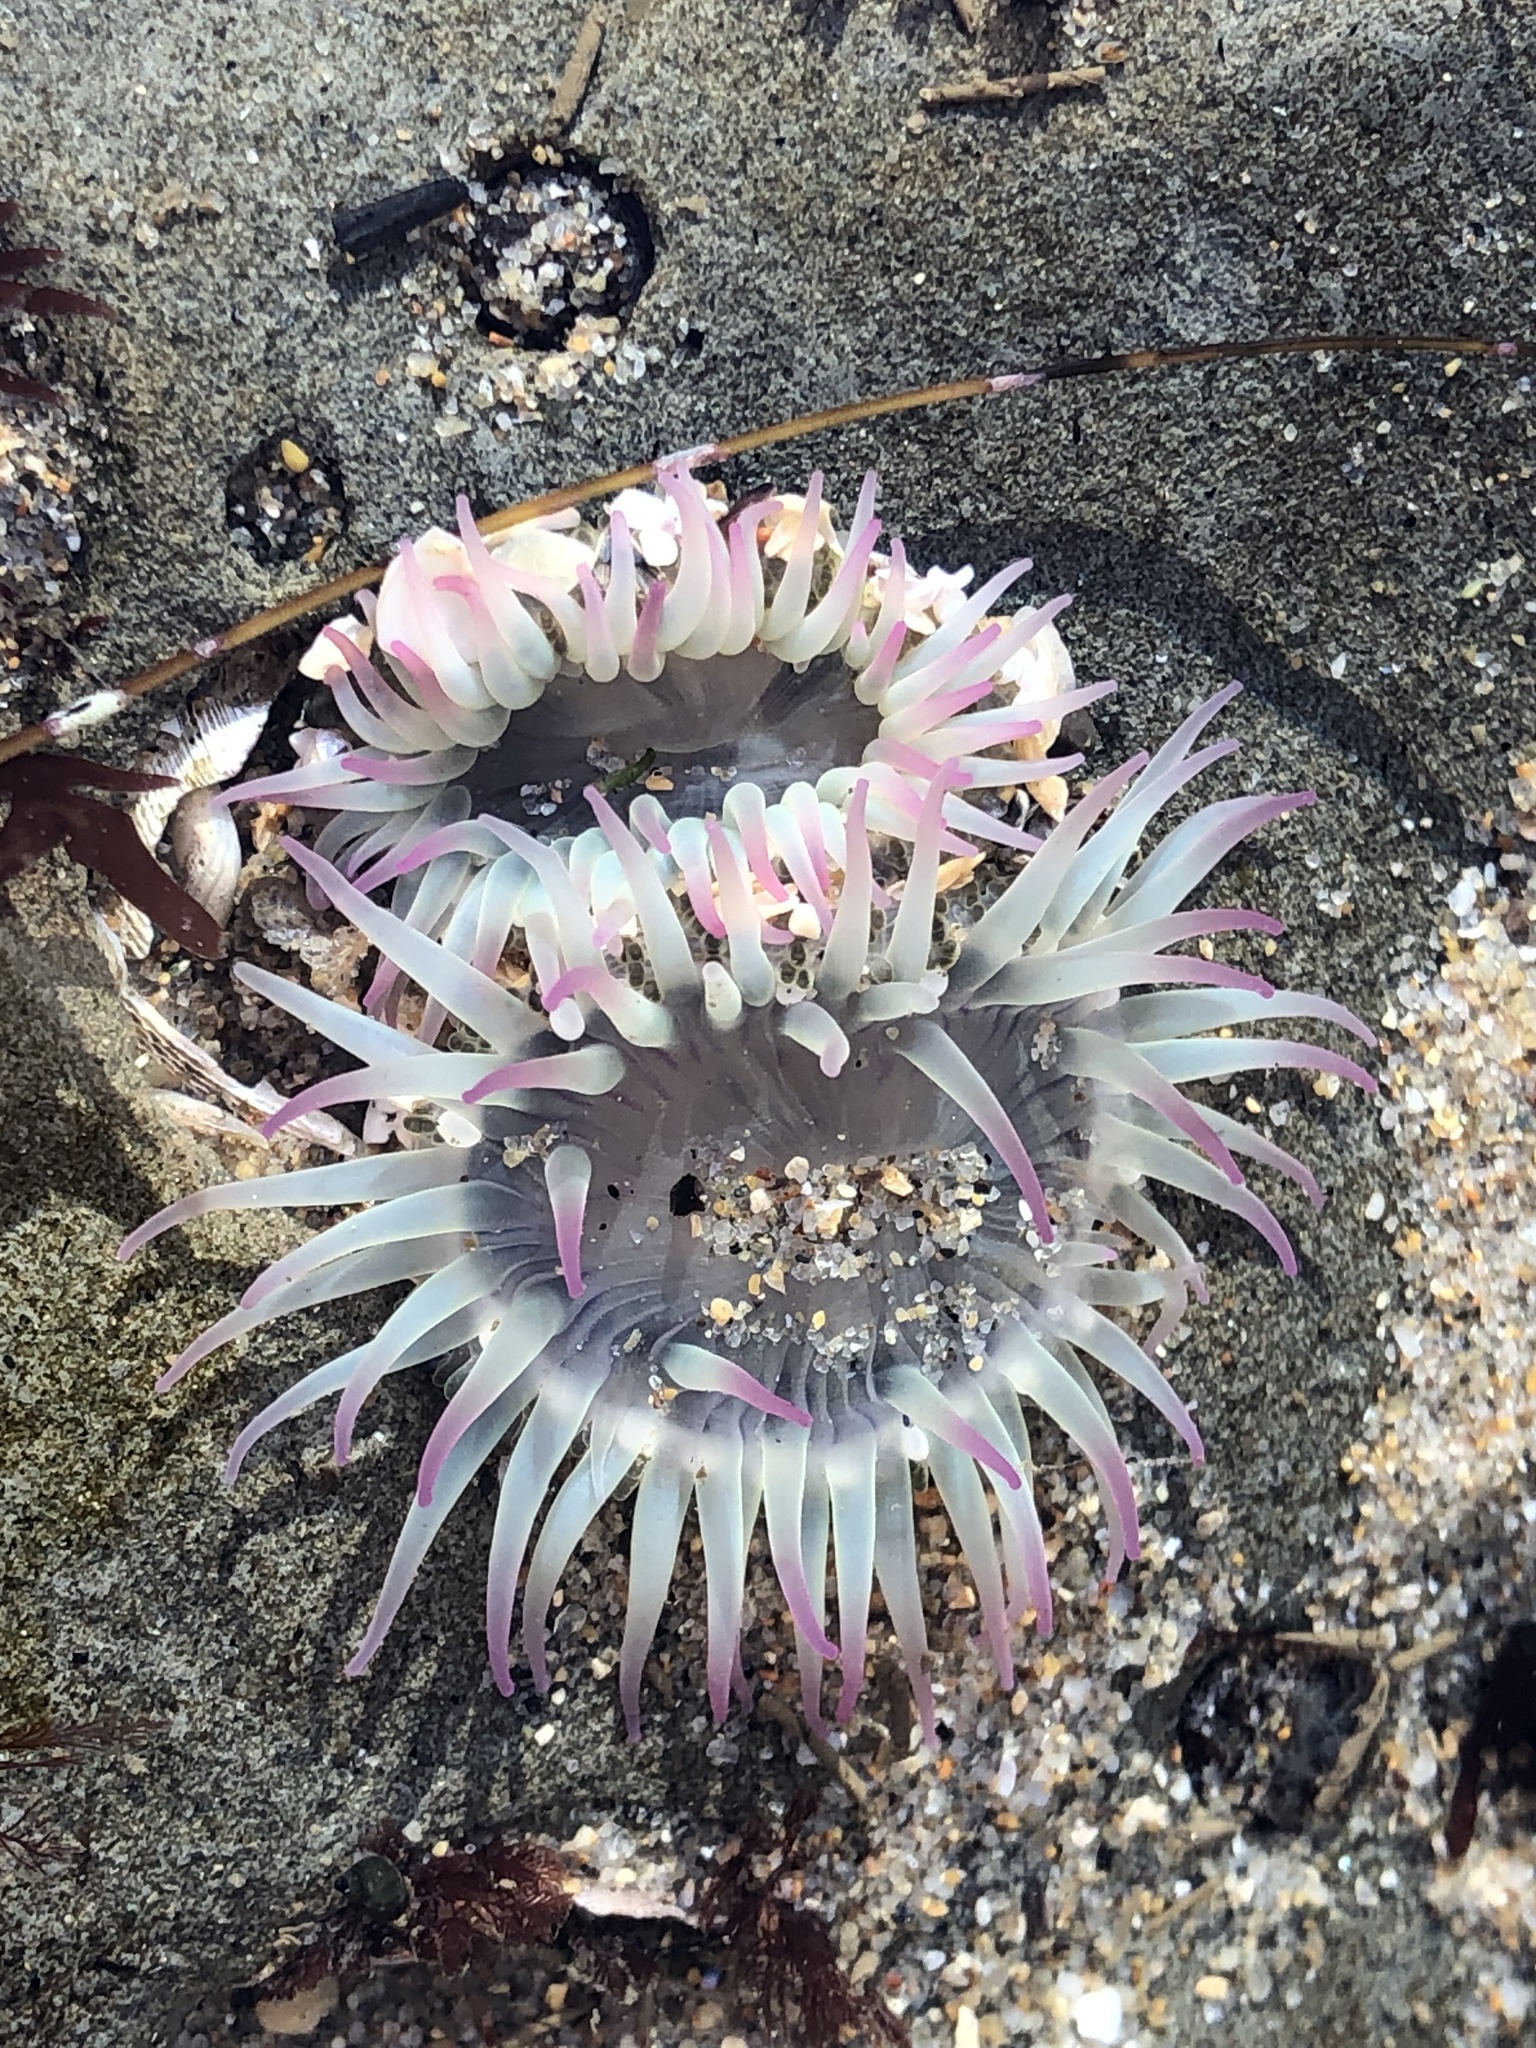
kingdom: Animalia
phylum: Cnidaria
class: Anthozoa
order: Actiniaria
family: Actiniidae
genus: Anthopleura
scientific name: Anthopleura elegantissima
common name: Clonal anemone
